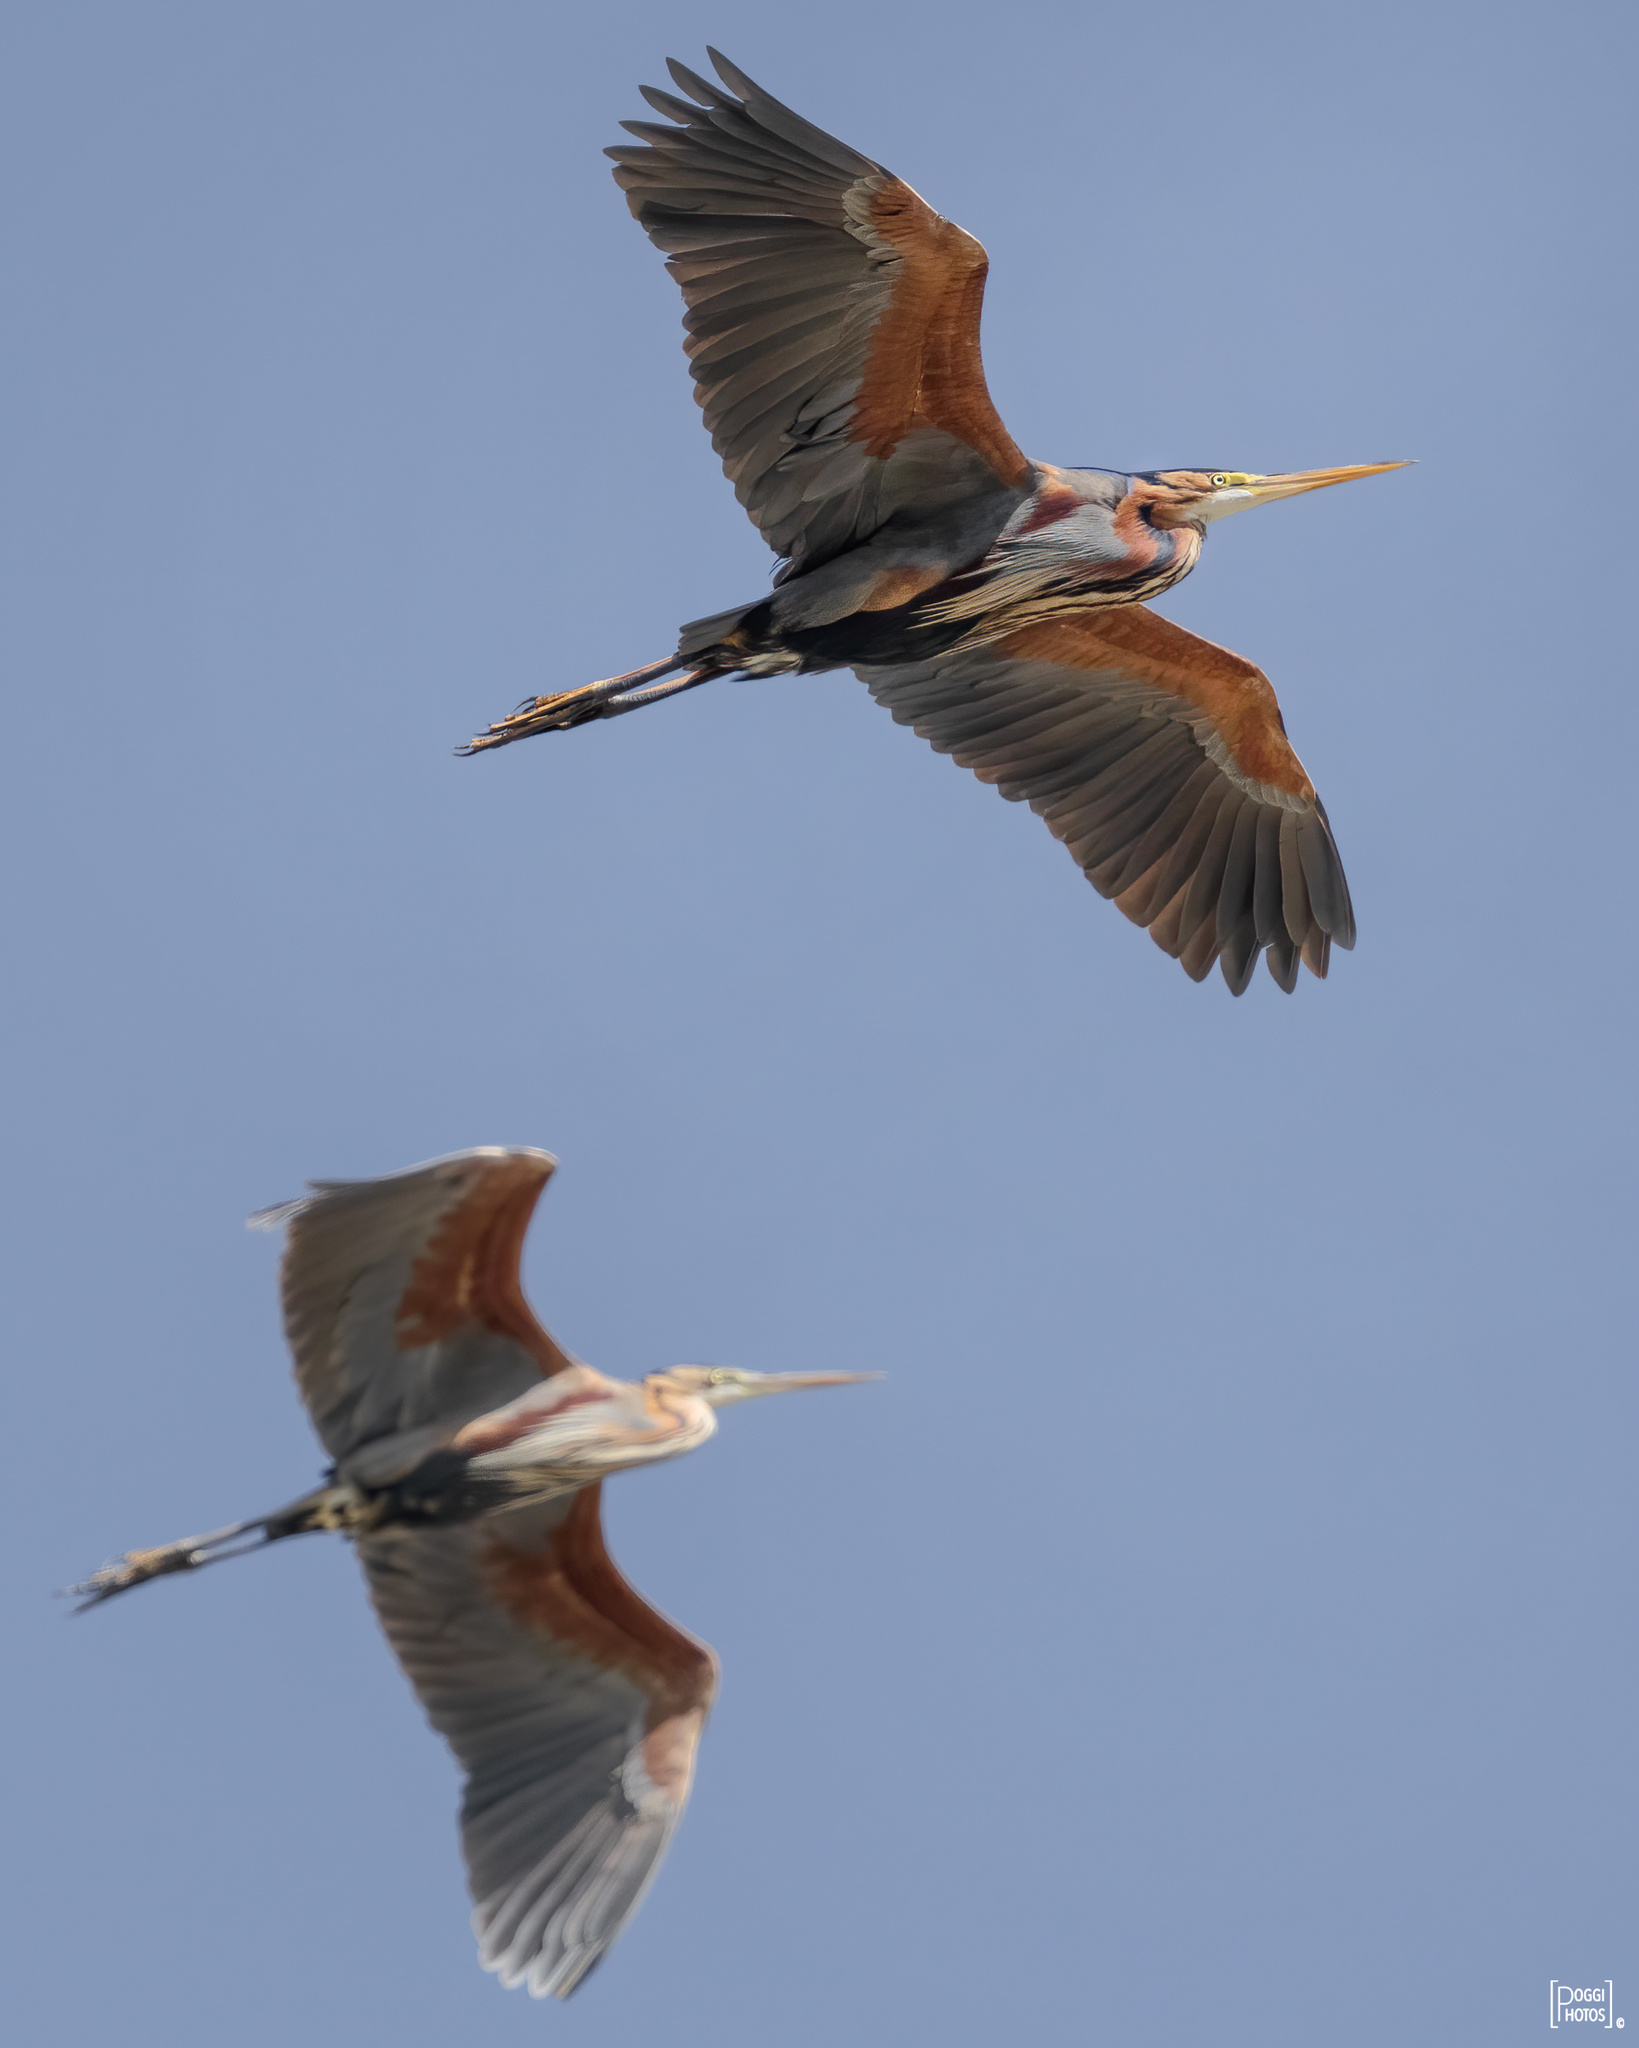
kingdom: Animalia
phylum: Chordata
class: Aves
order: Pelecaniformes
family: Ardeidae
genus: Ardea
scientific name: Ardea purpurea
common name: Purple heron
